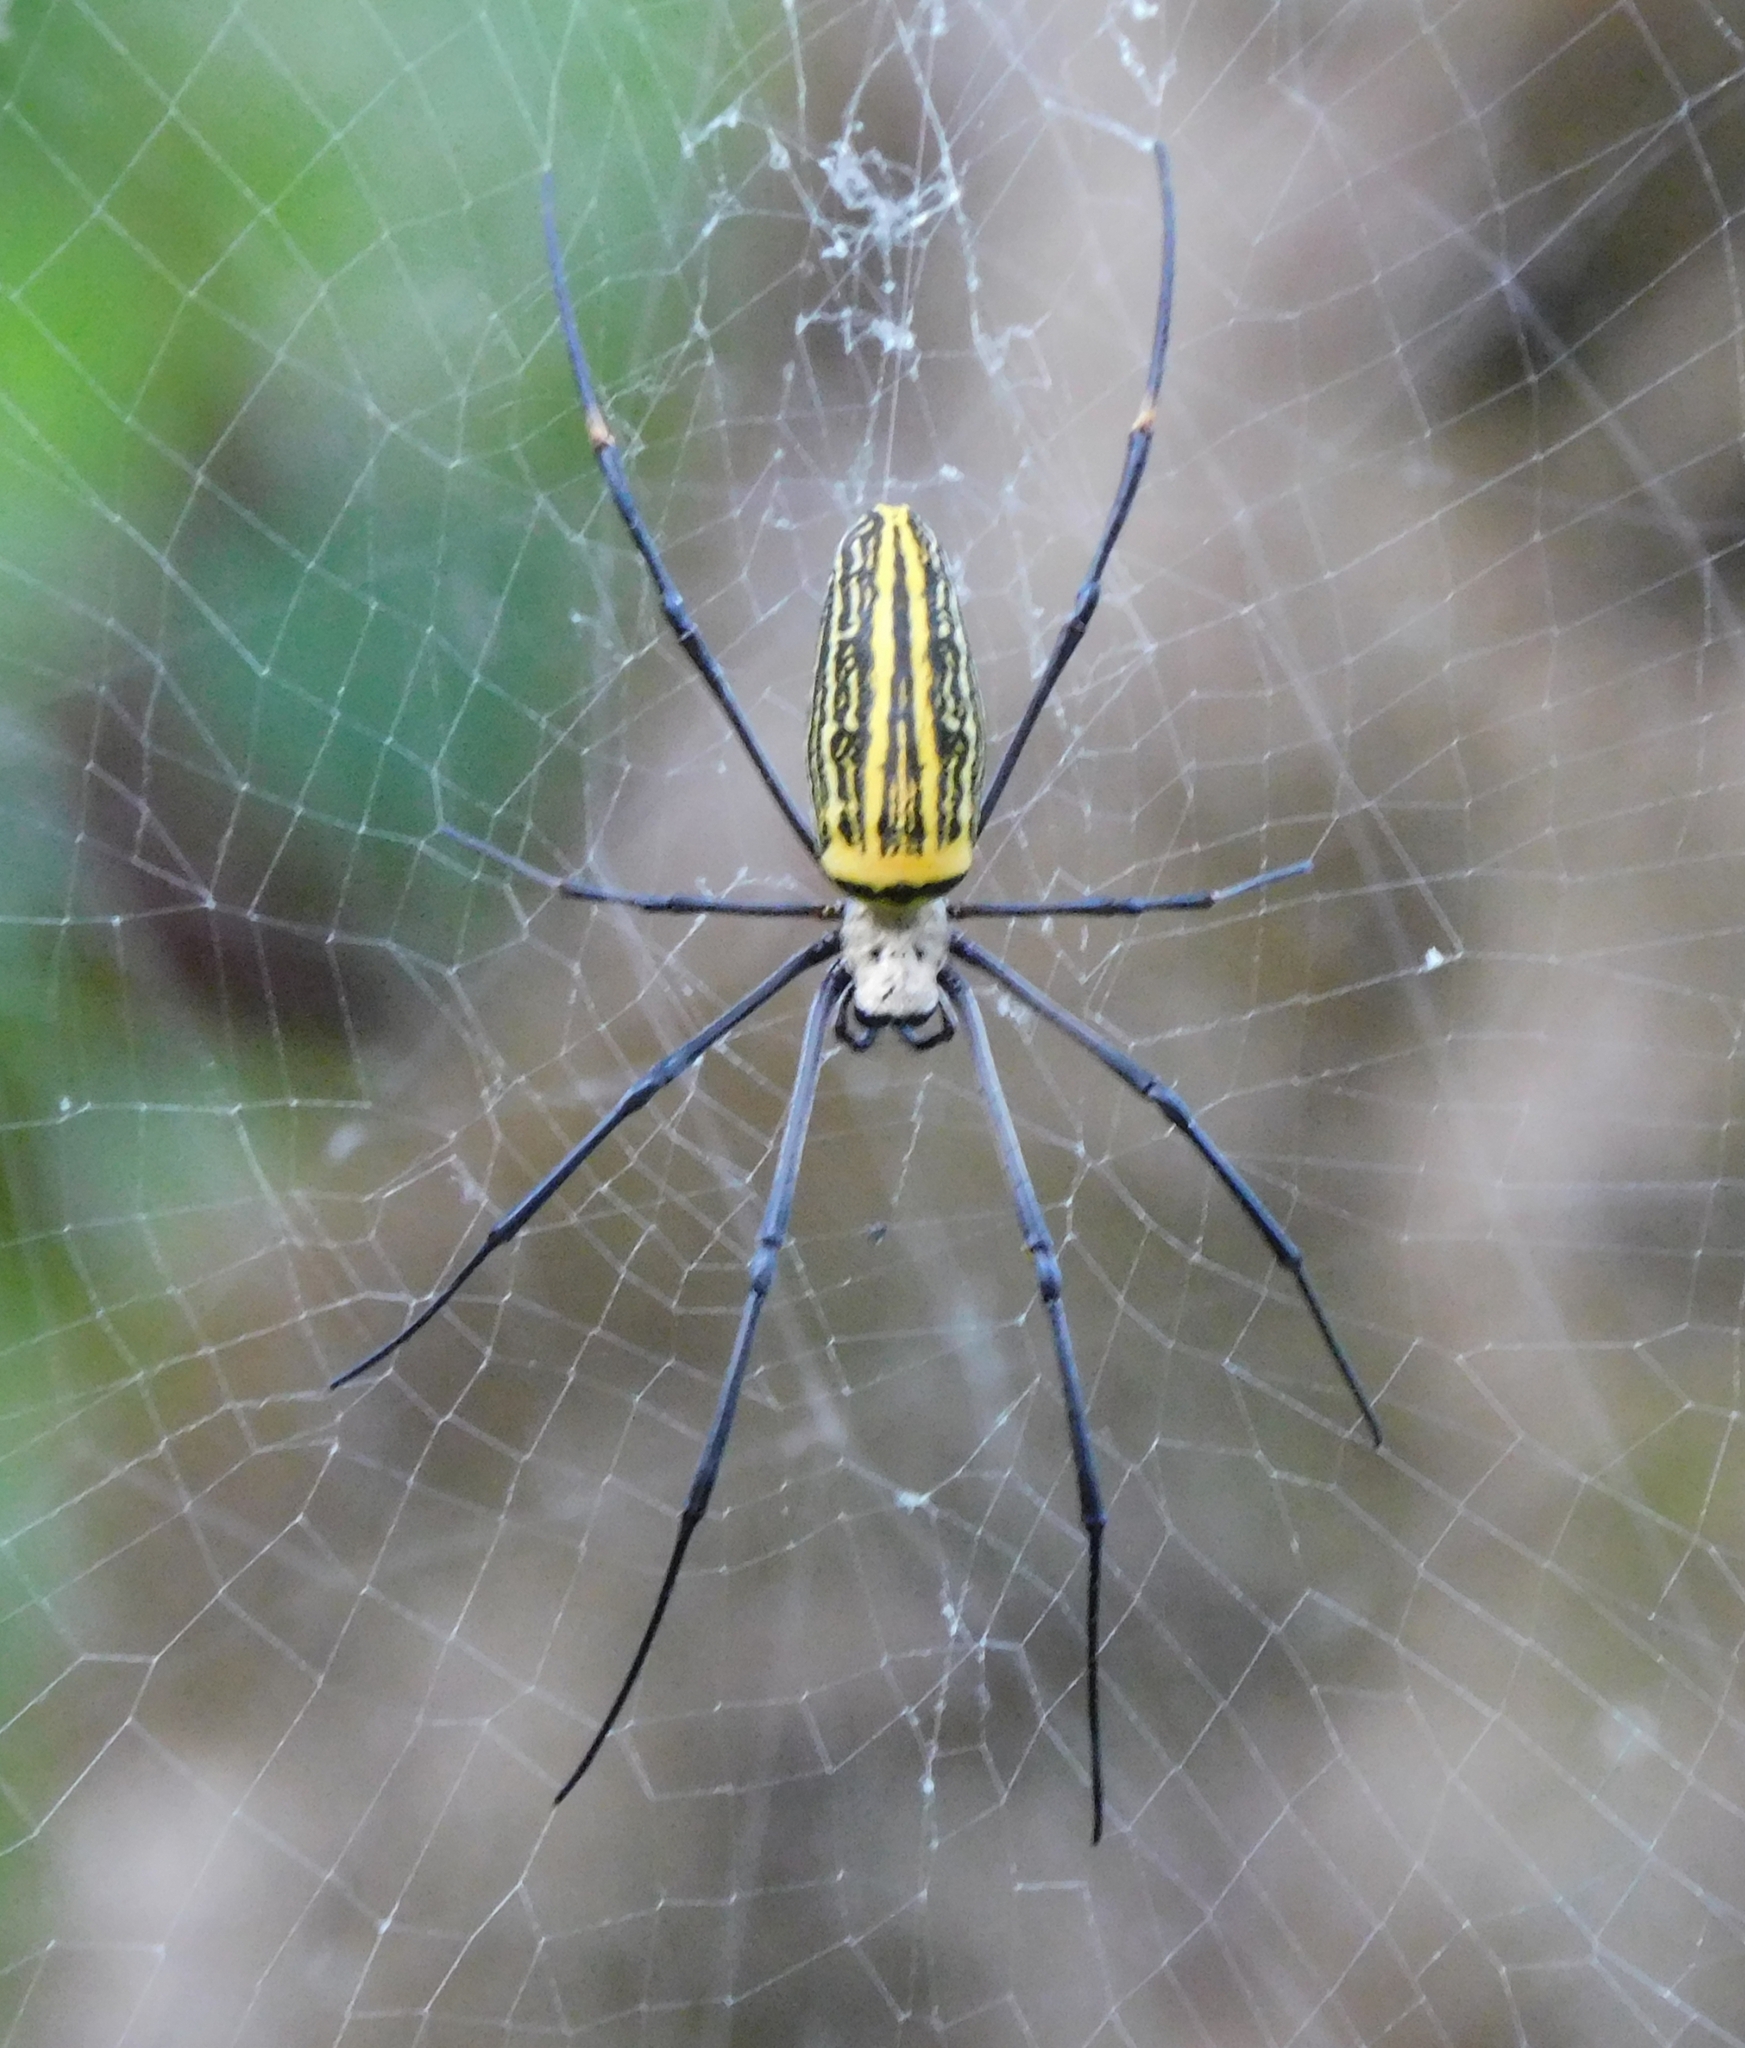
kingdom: Animalia
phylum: Arthropoda
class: Arachnida
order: Araneae
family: Araneidae
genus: Nephila
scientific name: Nephila pilipes
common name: Giant golden orb weaver
